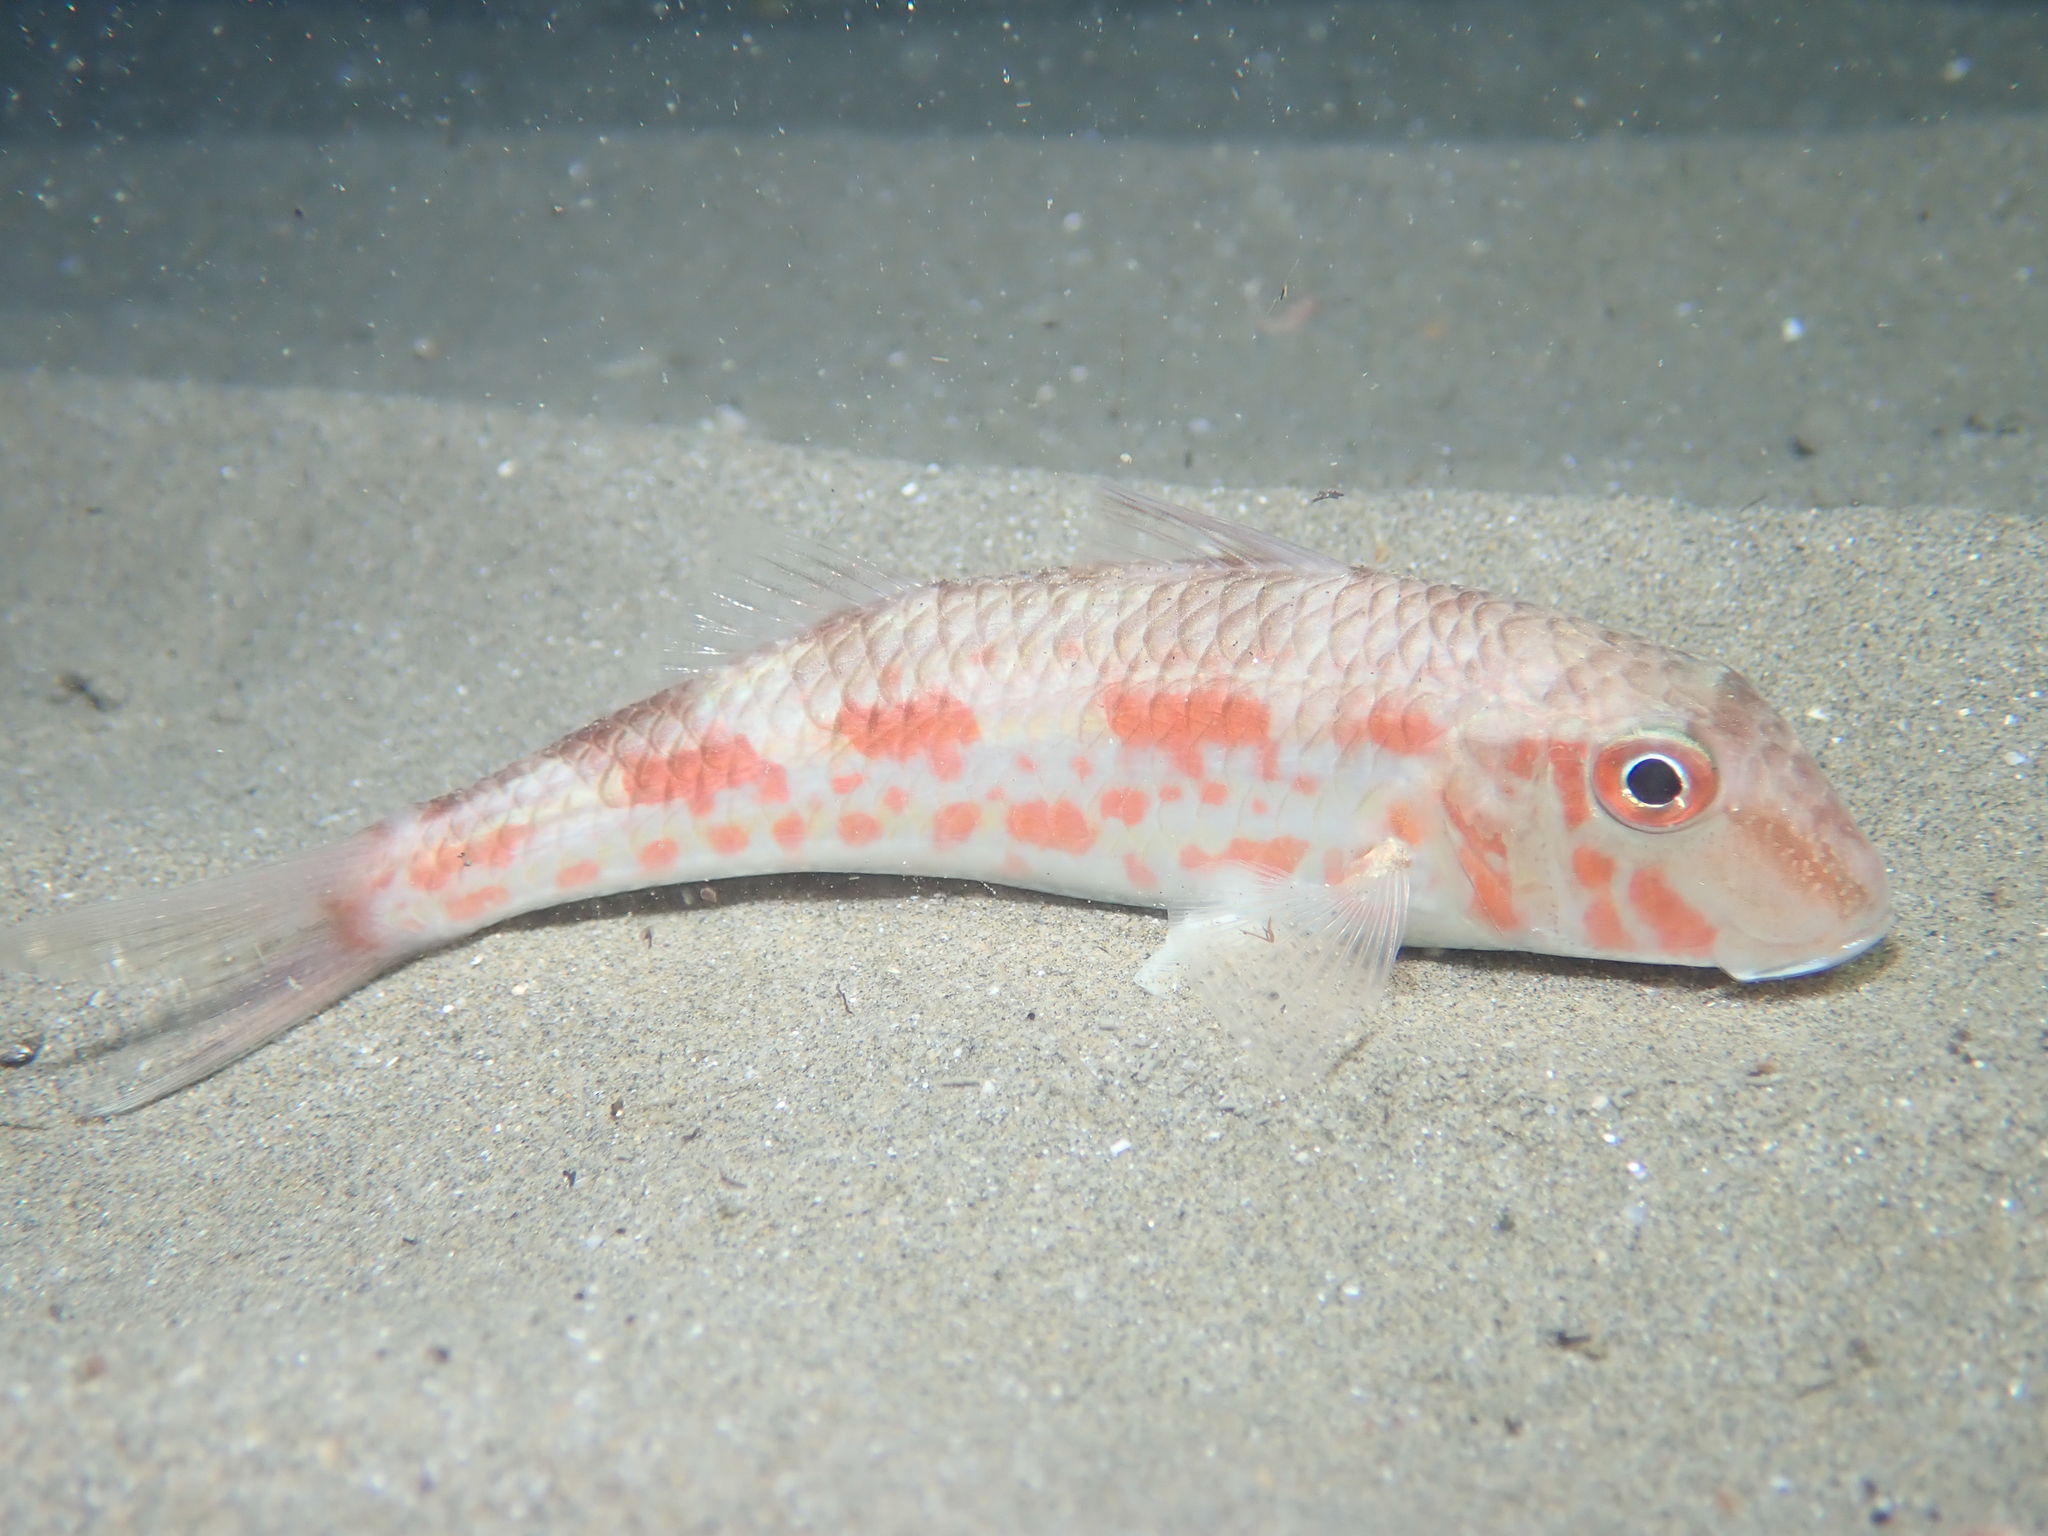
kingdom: Animalia
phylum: Chordata
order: Perciformes
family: Mullidae
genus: Mullus
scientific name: Mullus barbatus
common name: Blunt-snouted mullet
